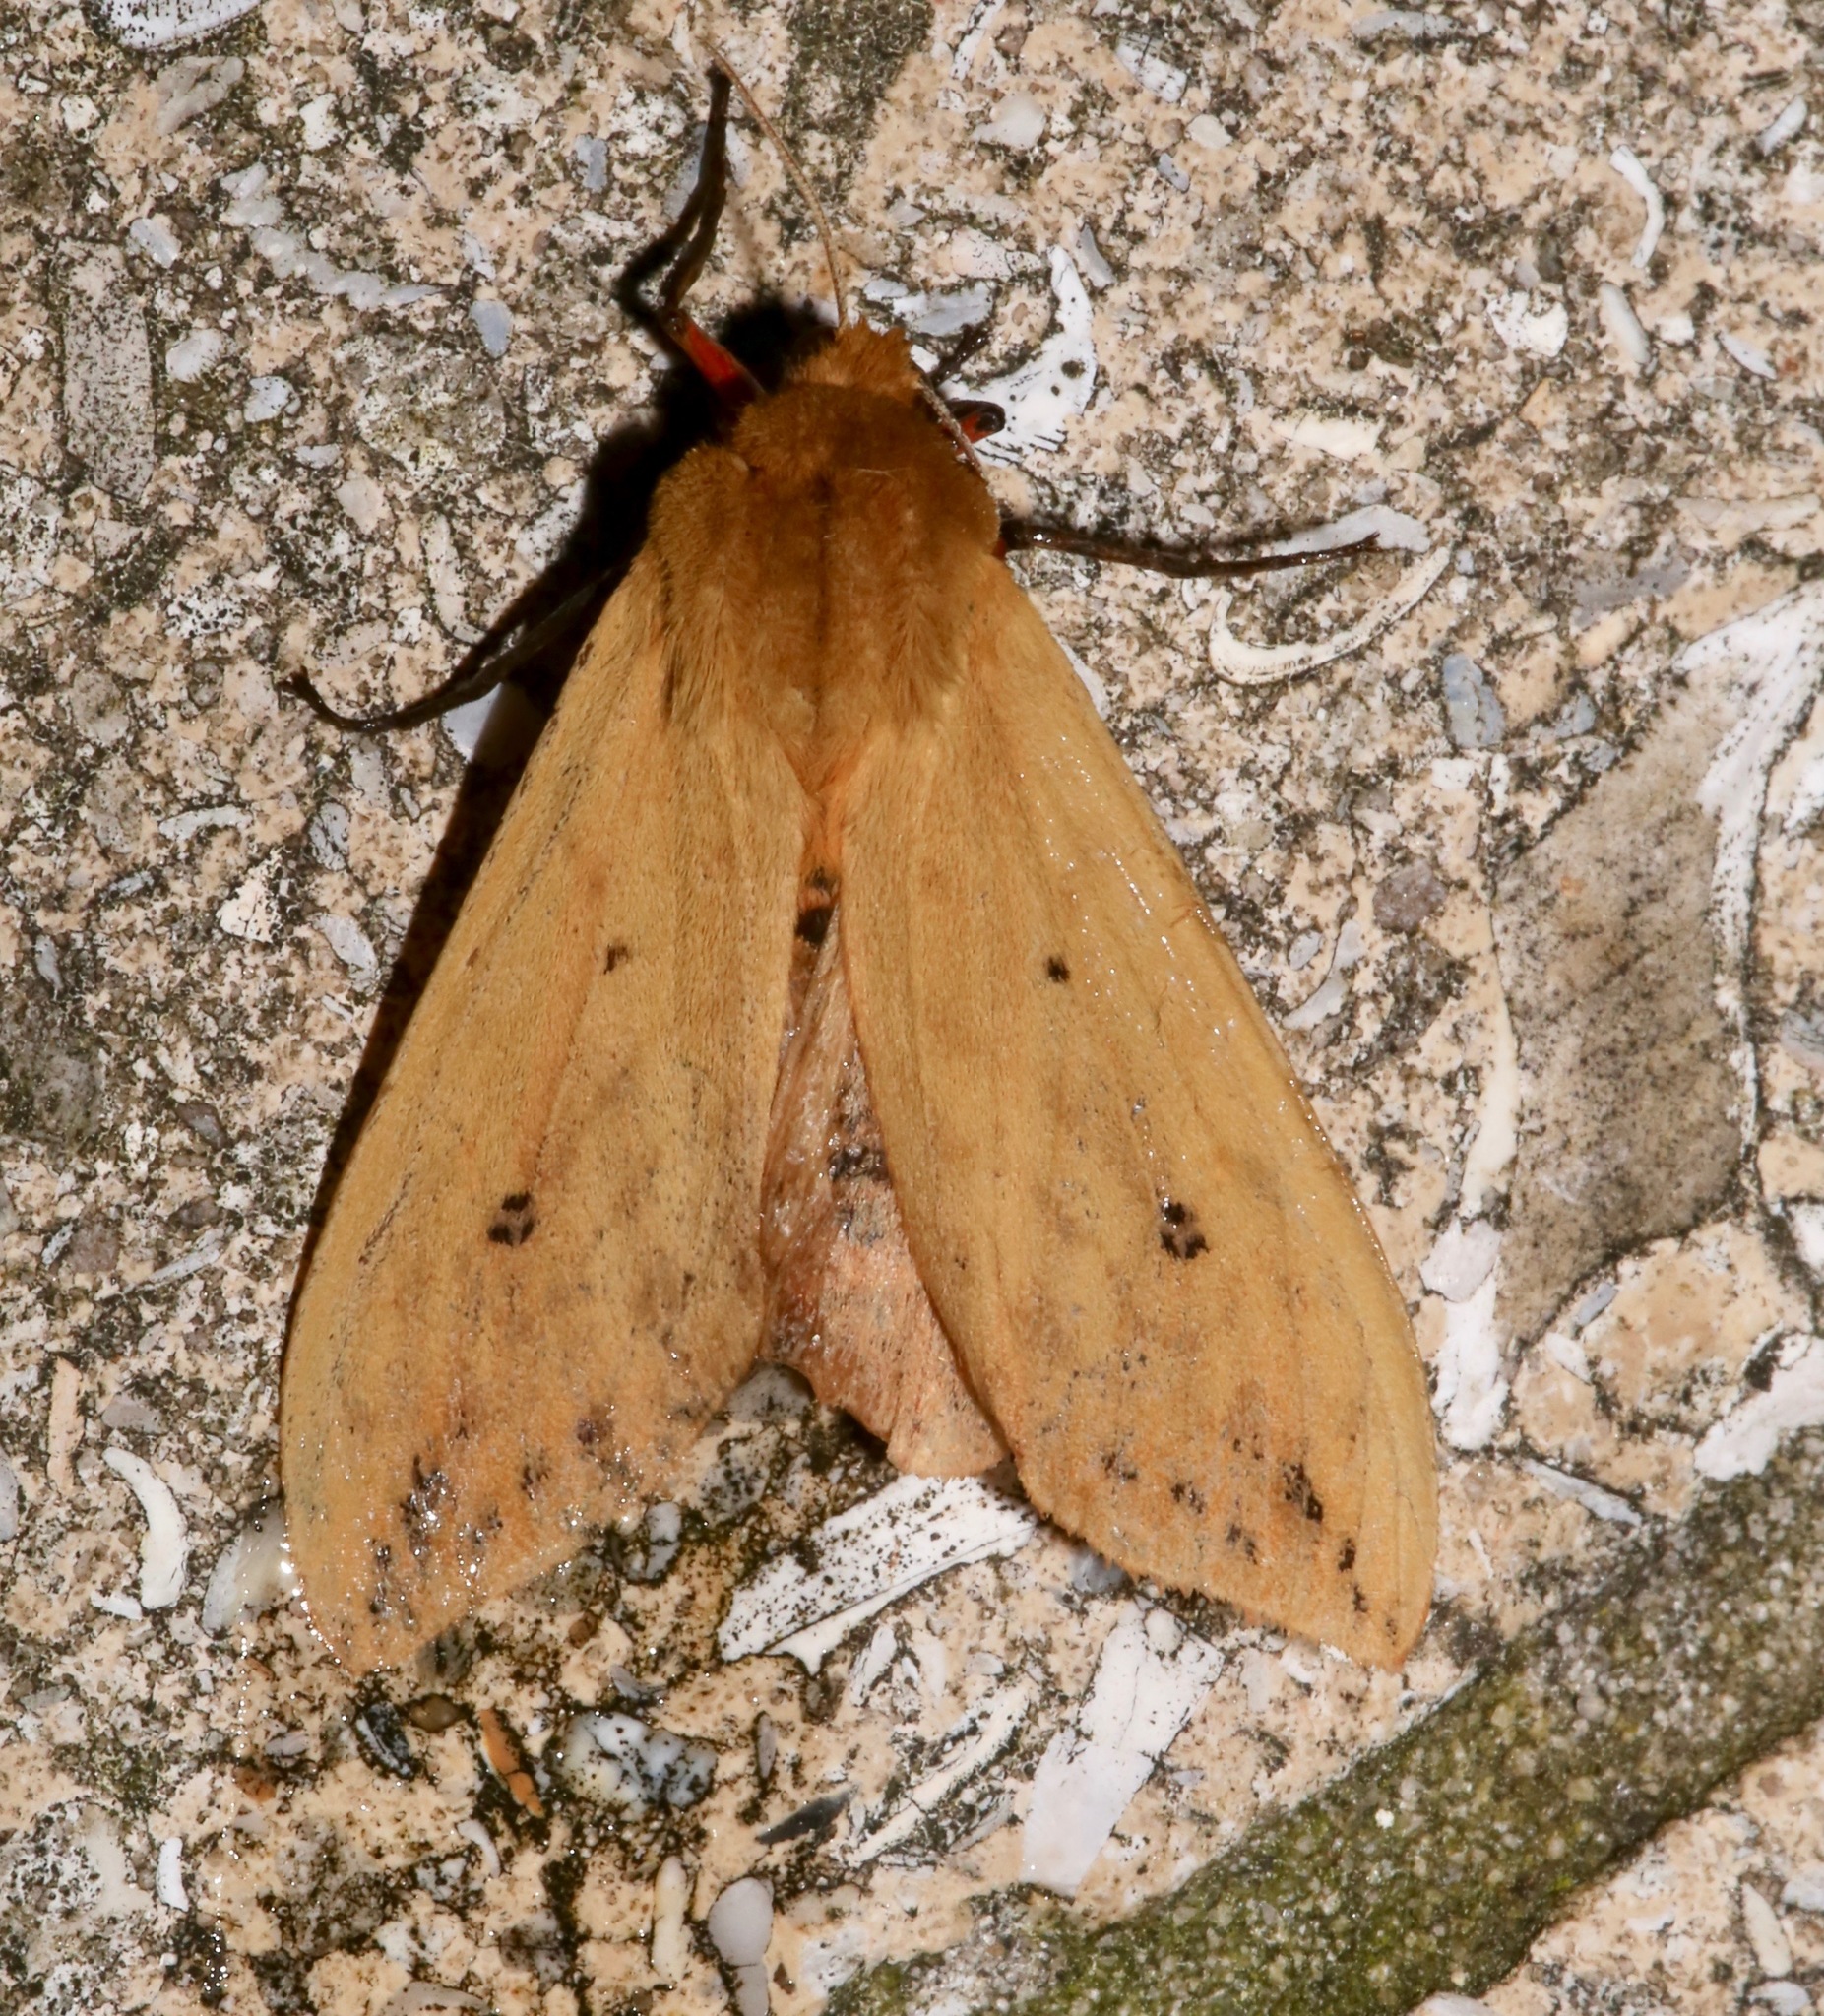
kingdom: Animalia
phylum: Arthropoda
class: Insecta
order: Lepidoptera
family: Erebidae
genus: Pyrrharctia
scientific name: Pyrrharctia isabella
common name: Isabella tiger moth
